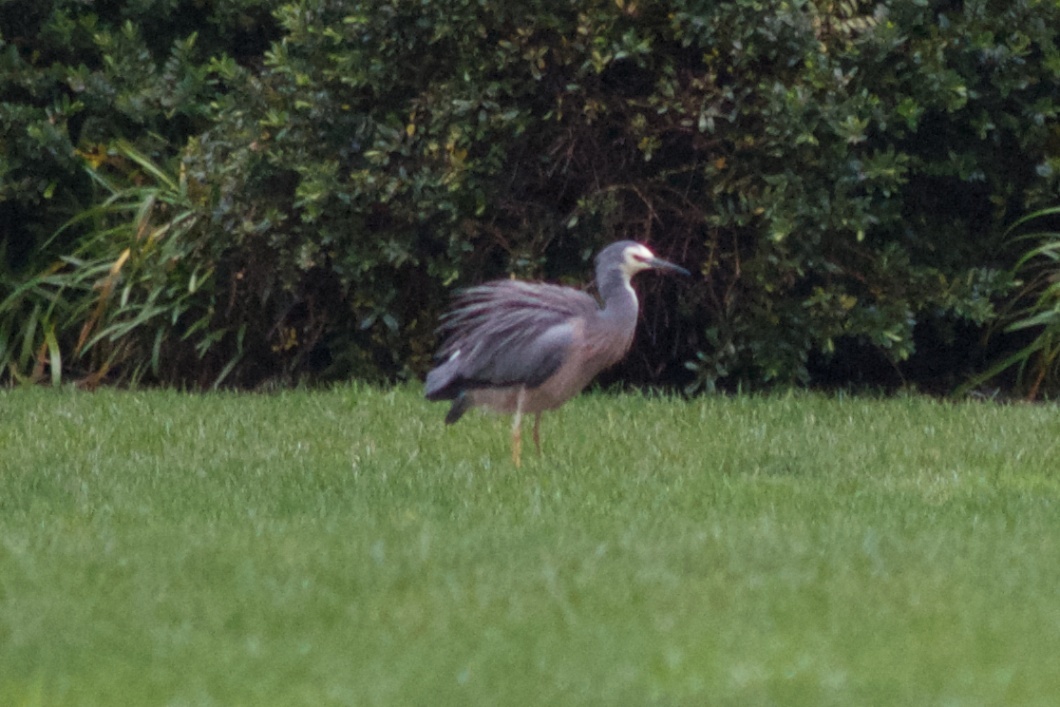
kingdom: Animalia
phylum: Chordata
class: Aves
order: Pelecaniformes
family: Ardeidae
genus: Egretta
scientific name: Egretta novaehollandiae
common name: White-faced heron
